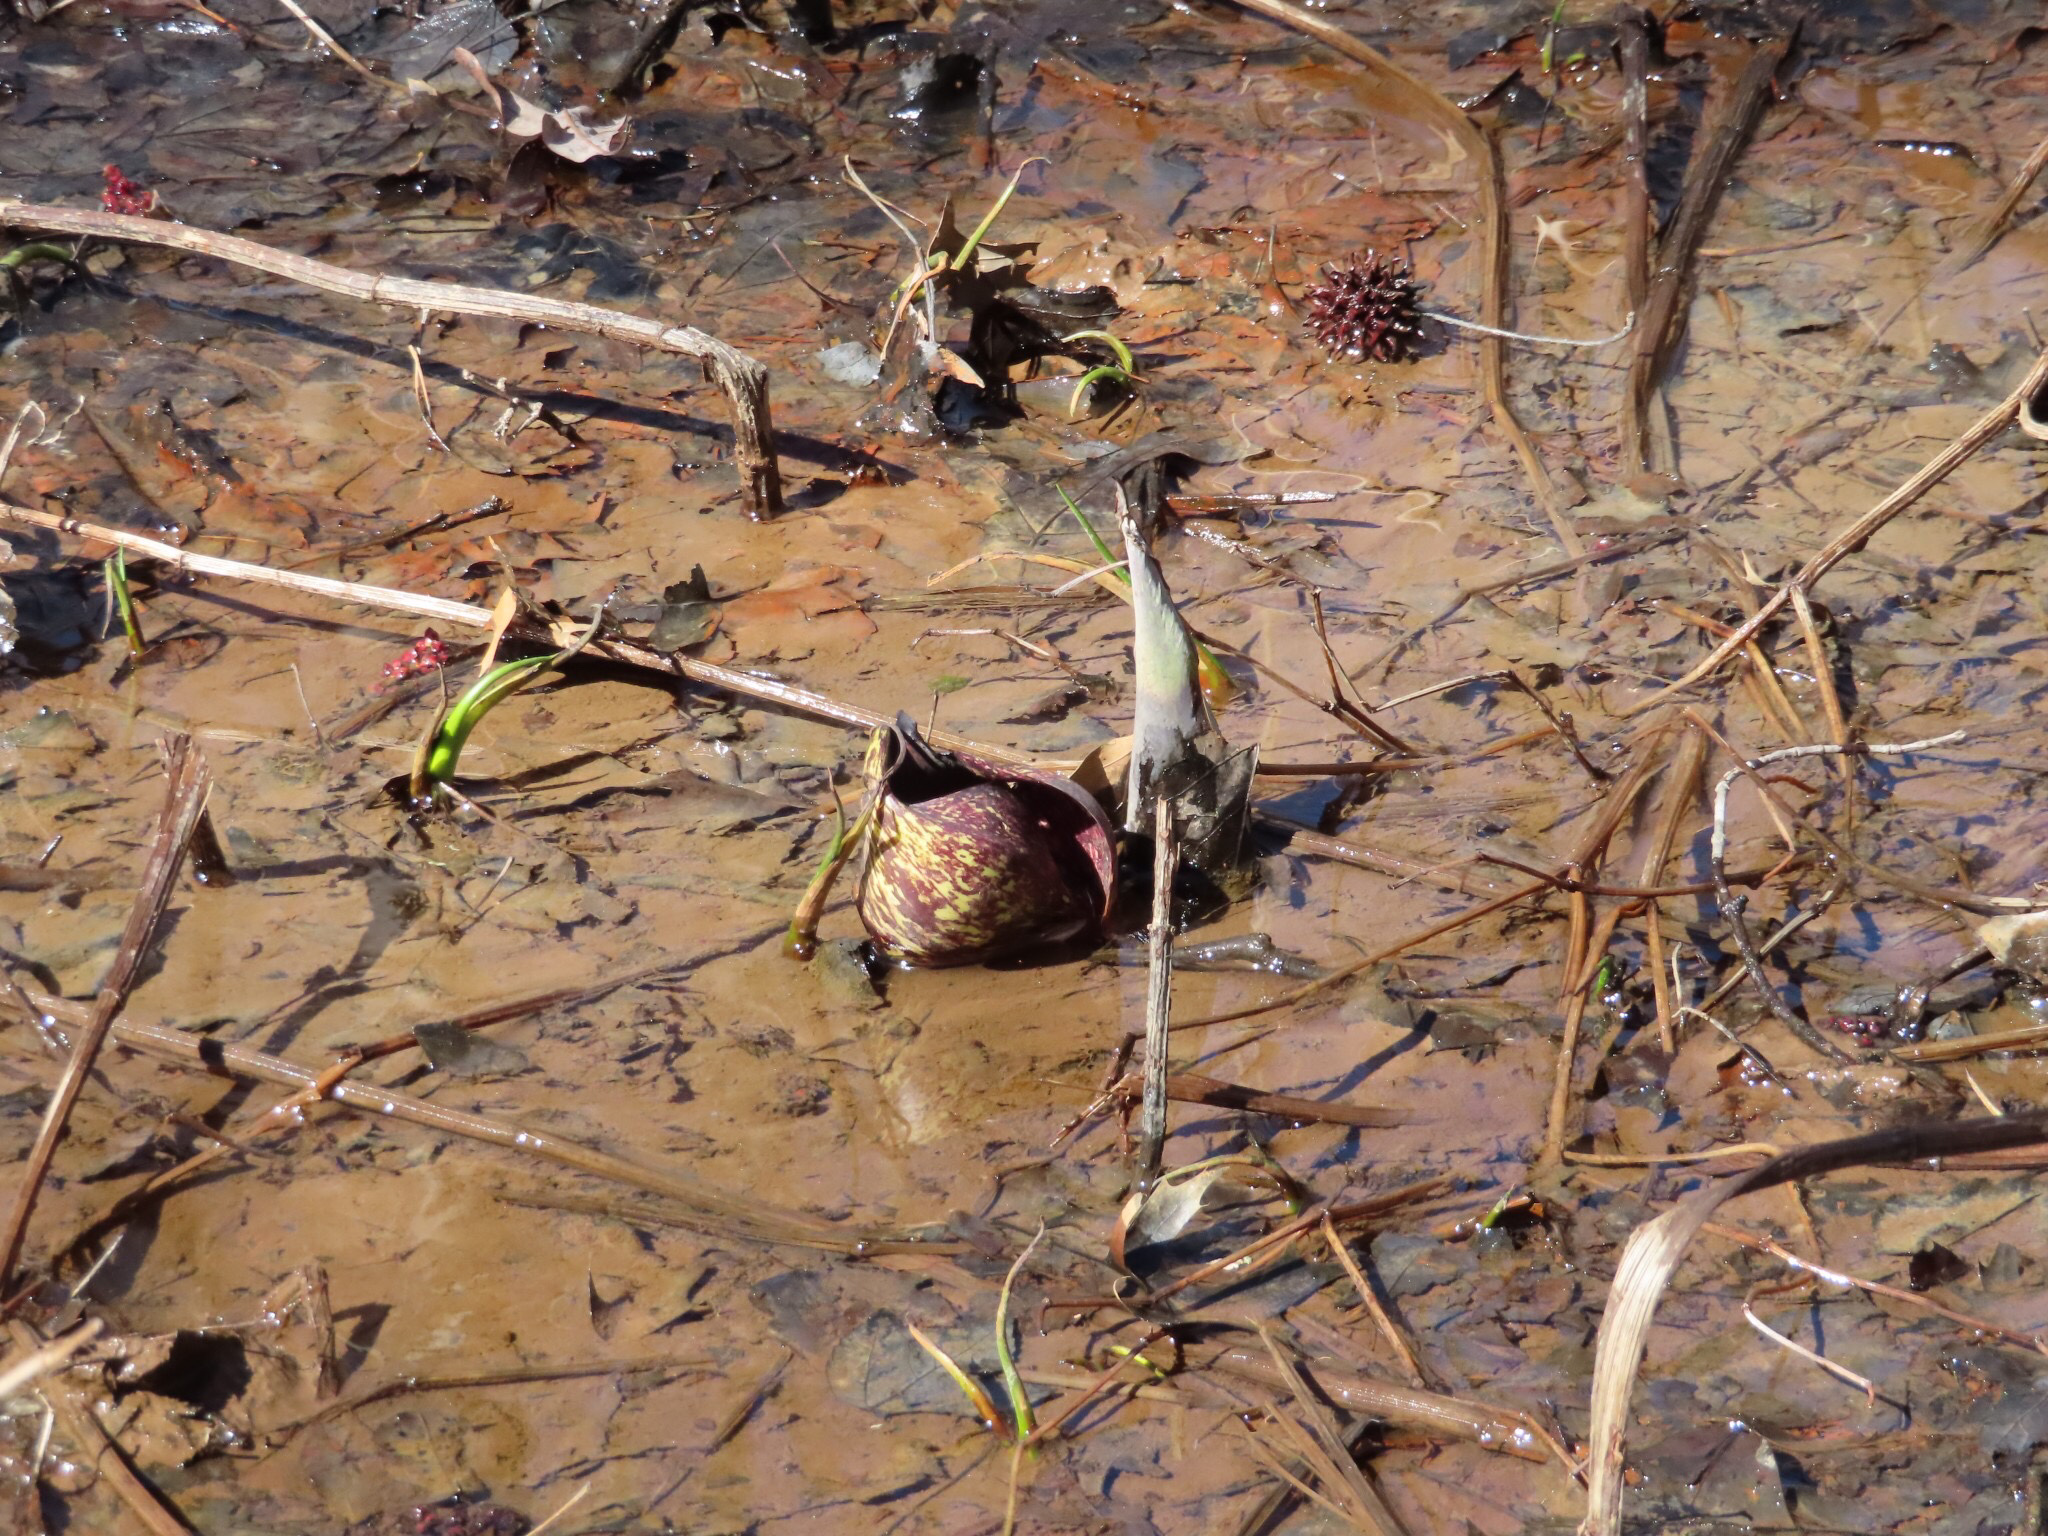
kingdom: Plantae
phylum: Tracheophyta
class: Liliopsida
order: Alismatales
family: Araceae
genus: Symplocarpus
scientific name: Symplocarpus foetidus
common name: Eastern skunk cabbage
